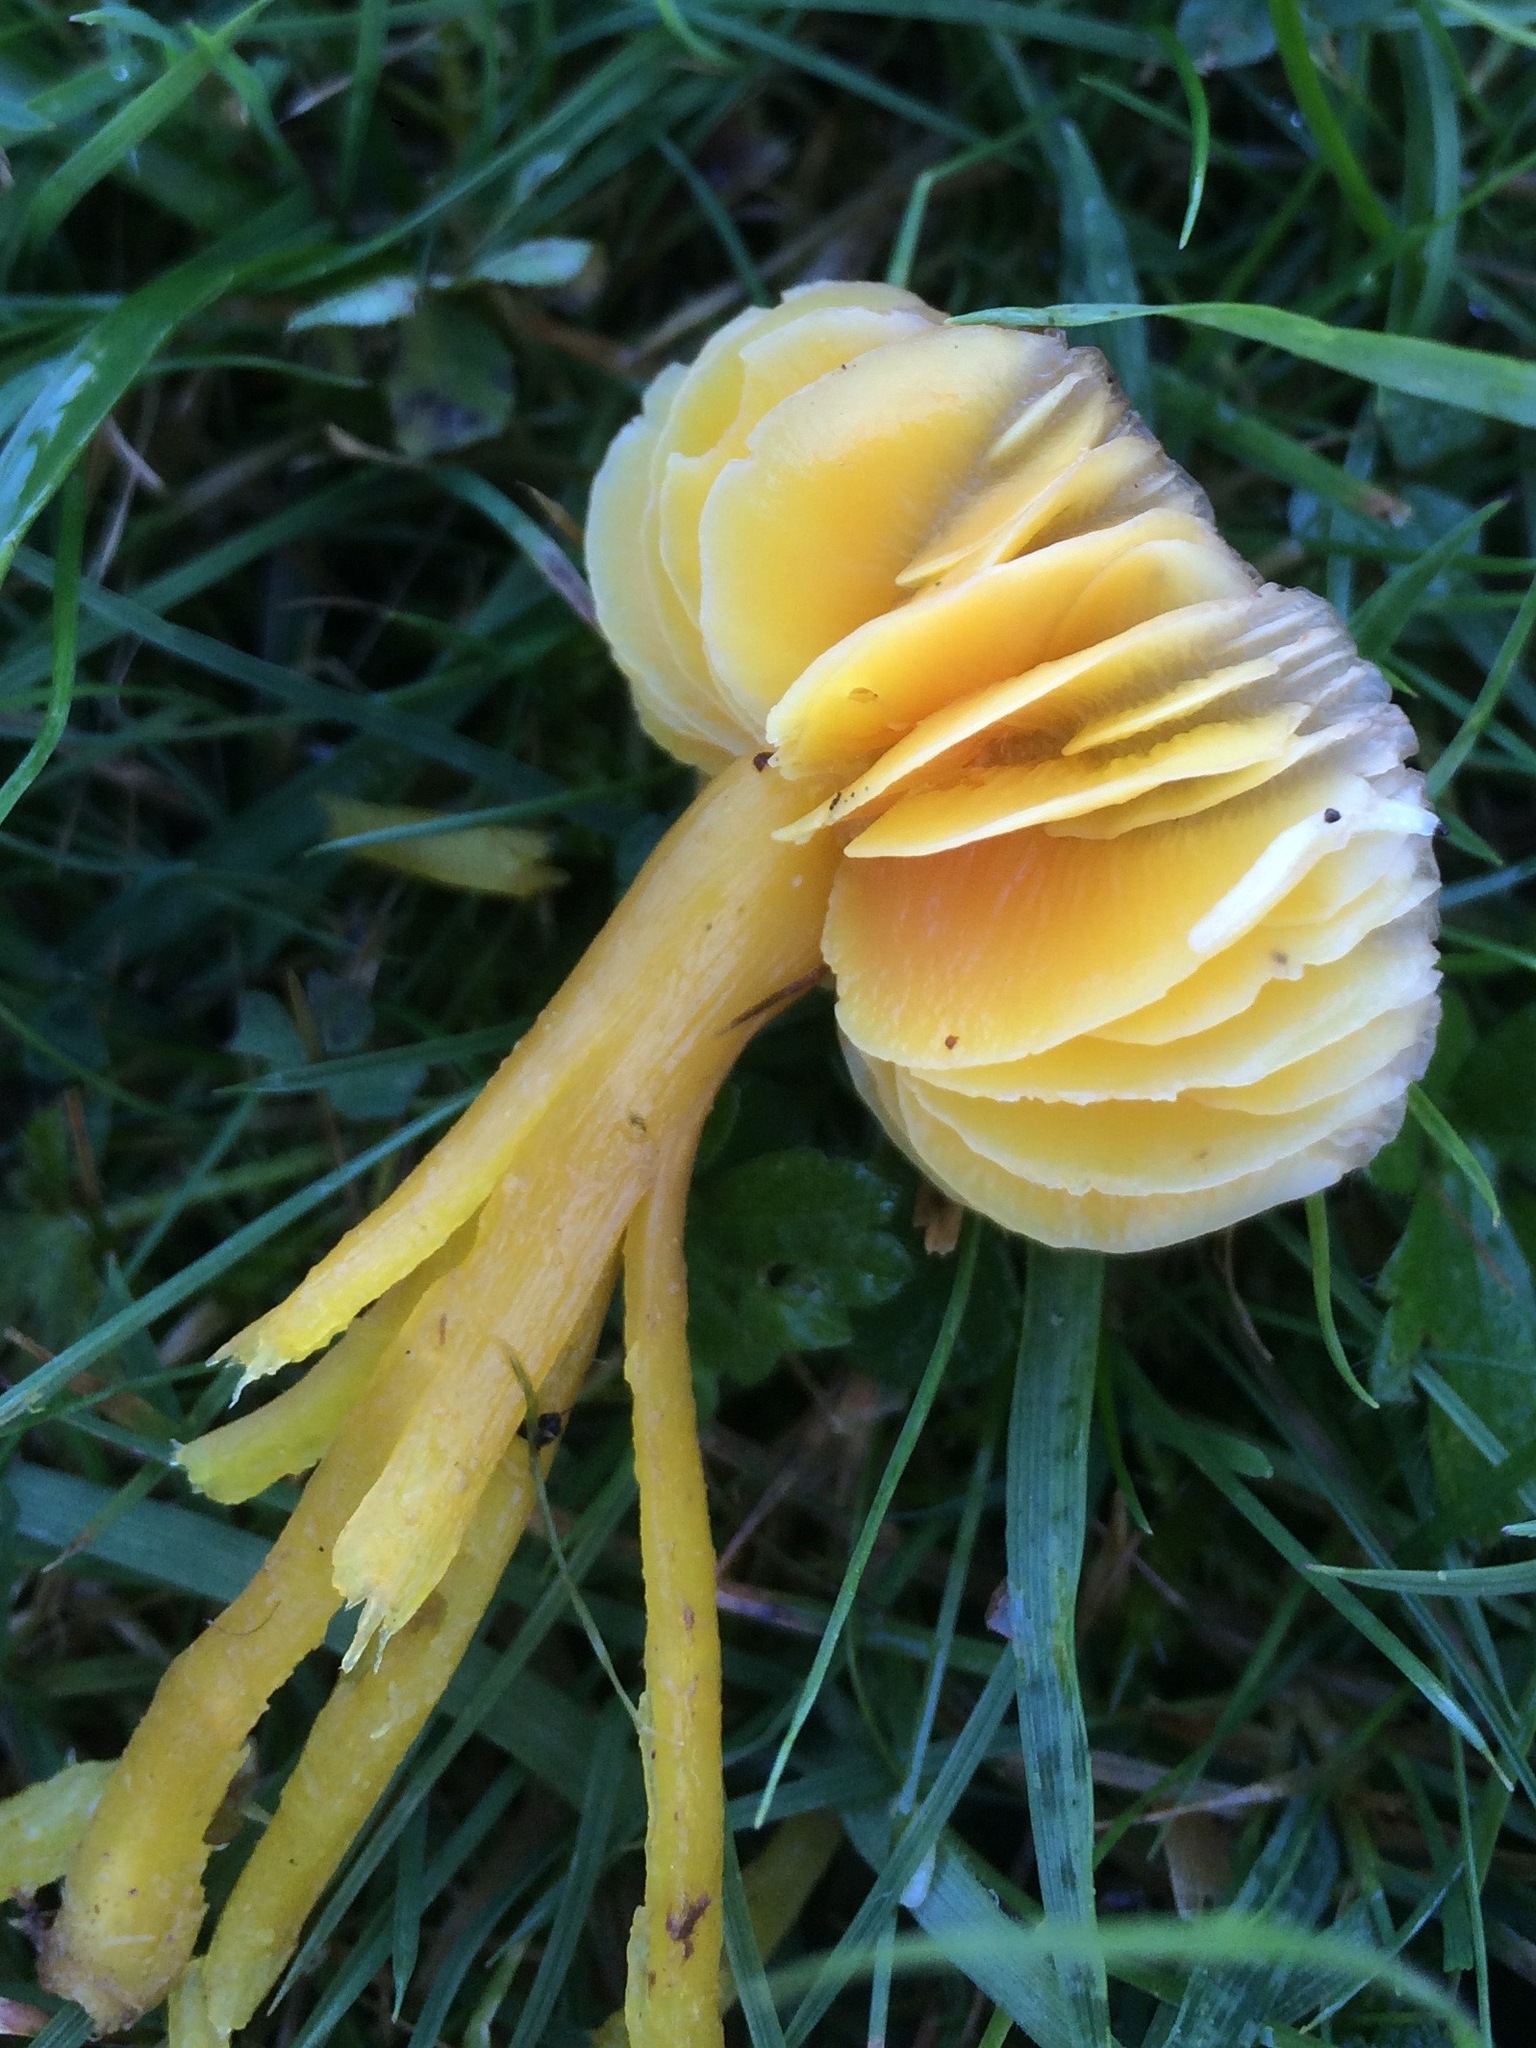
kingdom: Fungi
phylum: Basidiomycota
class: Agaricomycetes
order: Agaricales
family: Hygrophoraceae
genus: Hygrocybe
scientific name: Hygrocybe quieta
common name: Oily waxcap
